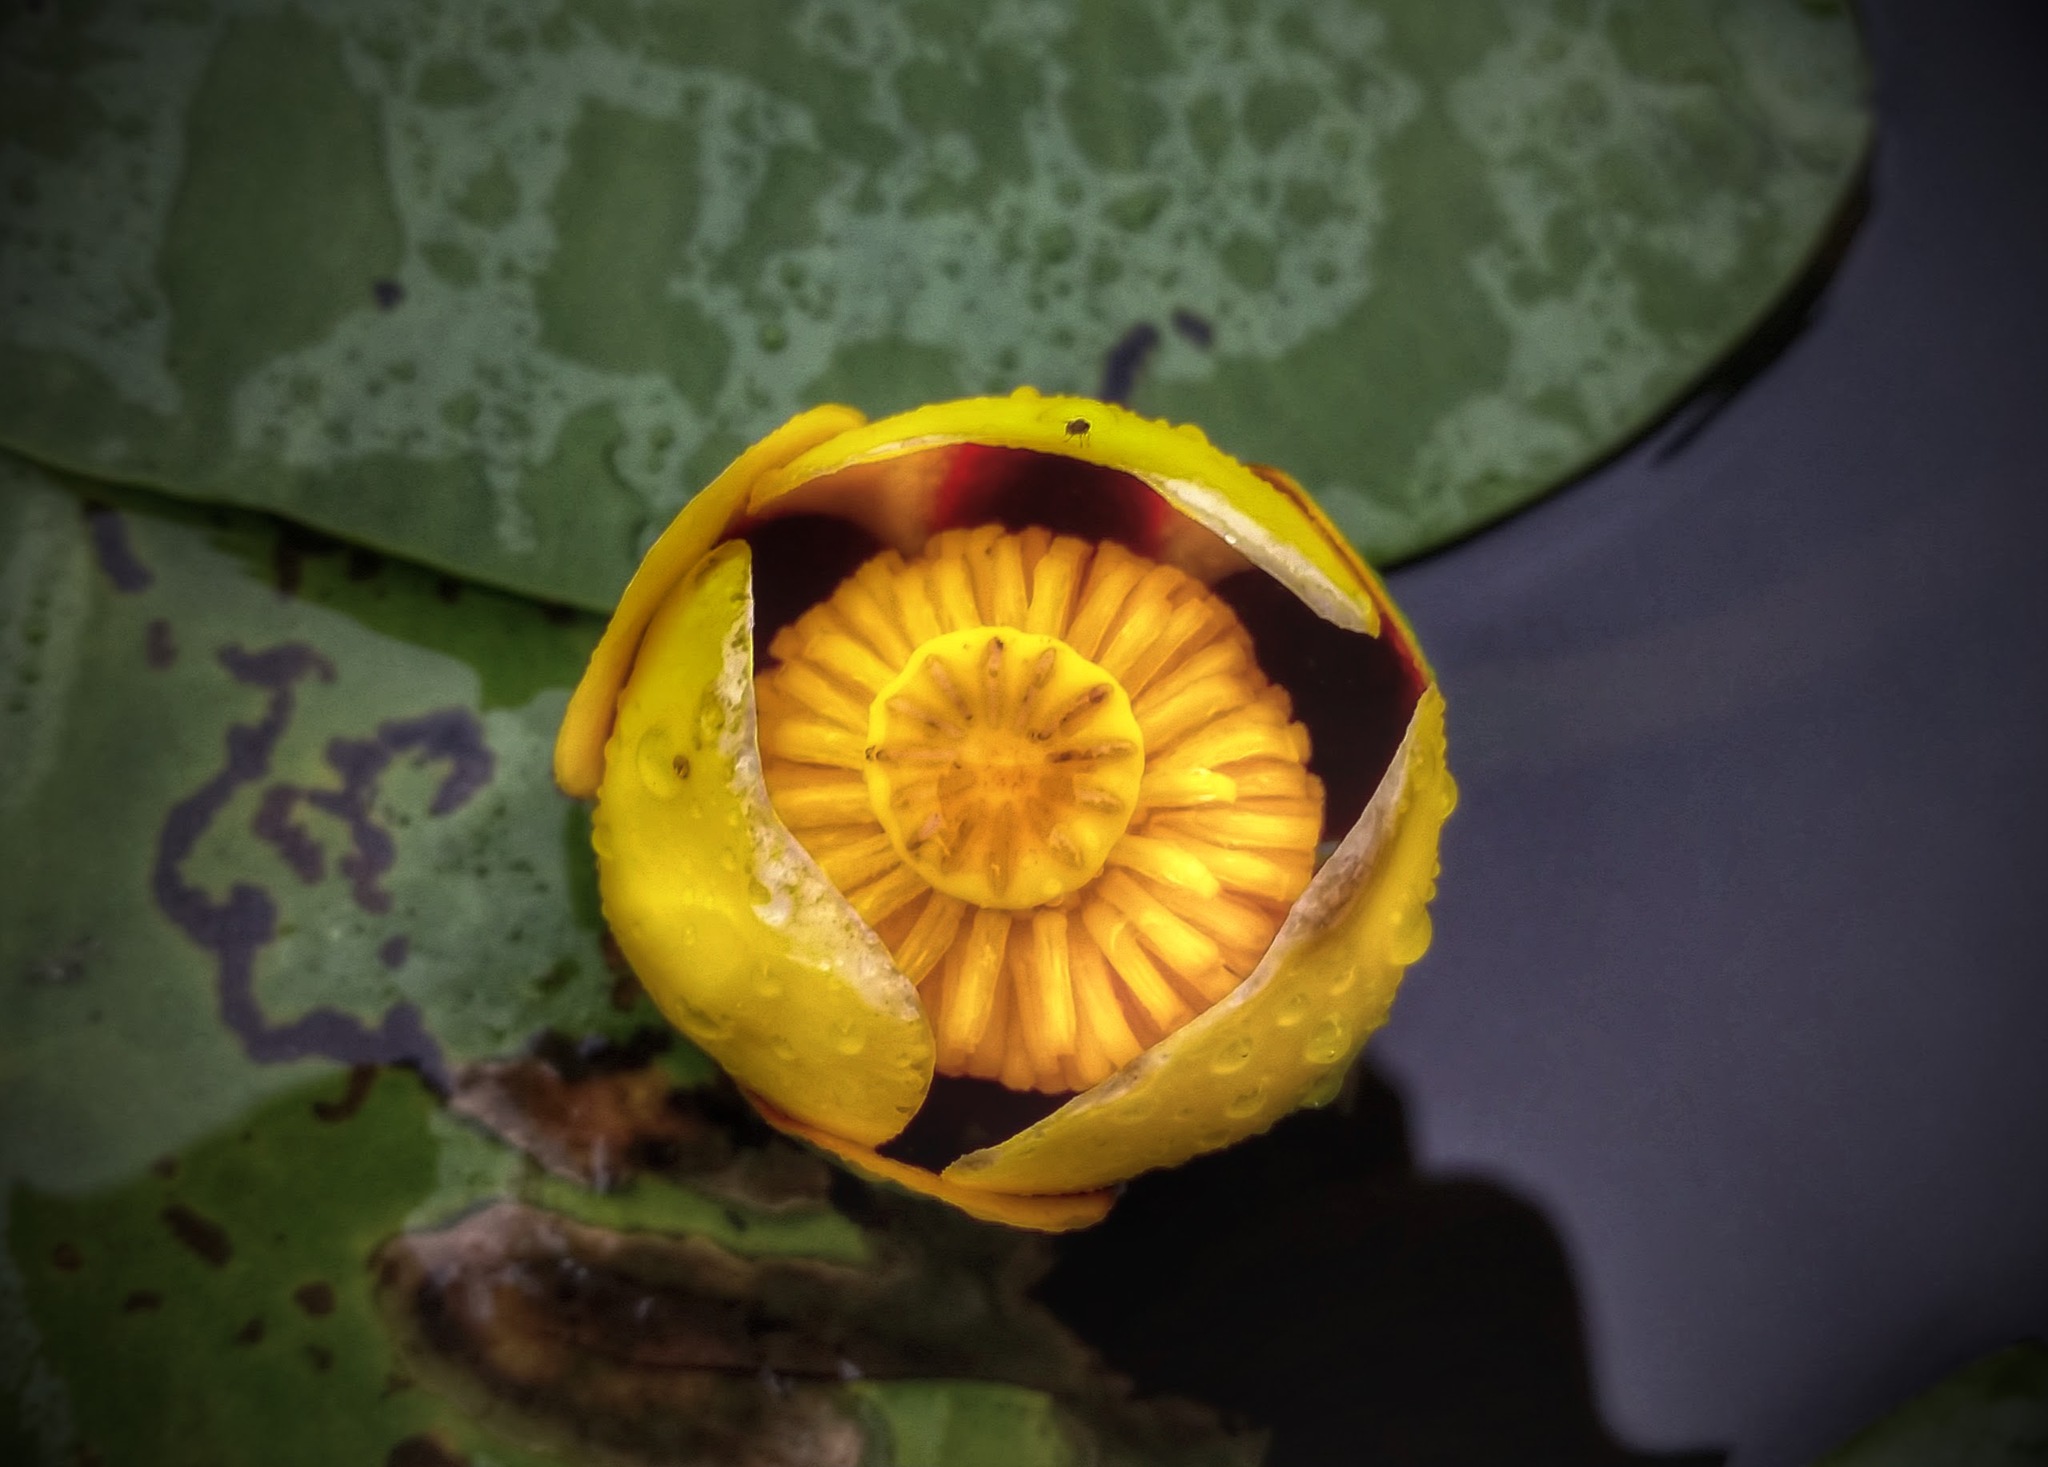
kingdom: Plantae
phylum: Tracheophyta
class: Magnoliopsida
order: Nymphaeales
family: Nymphaeaceae
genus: Nuphar
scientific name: Nuphar variegata
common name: Beaver-root
